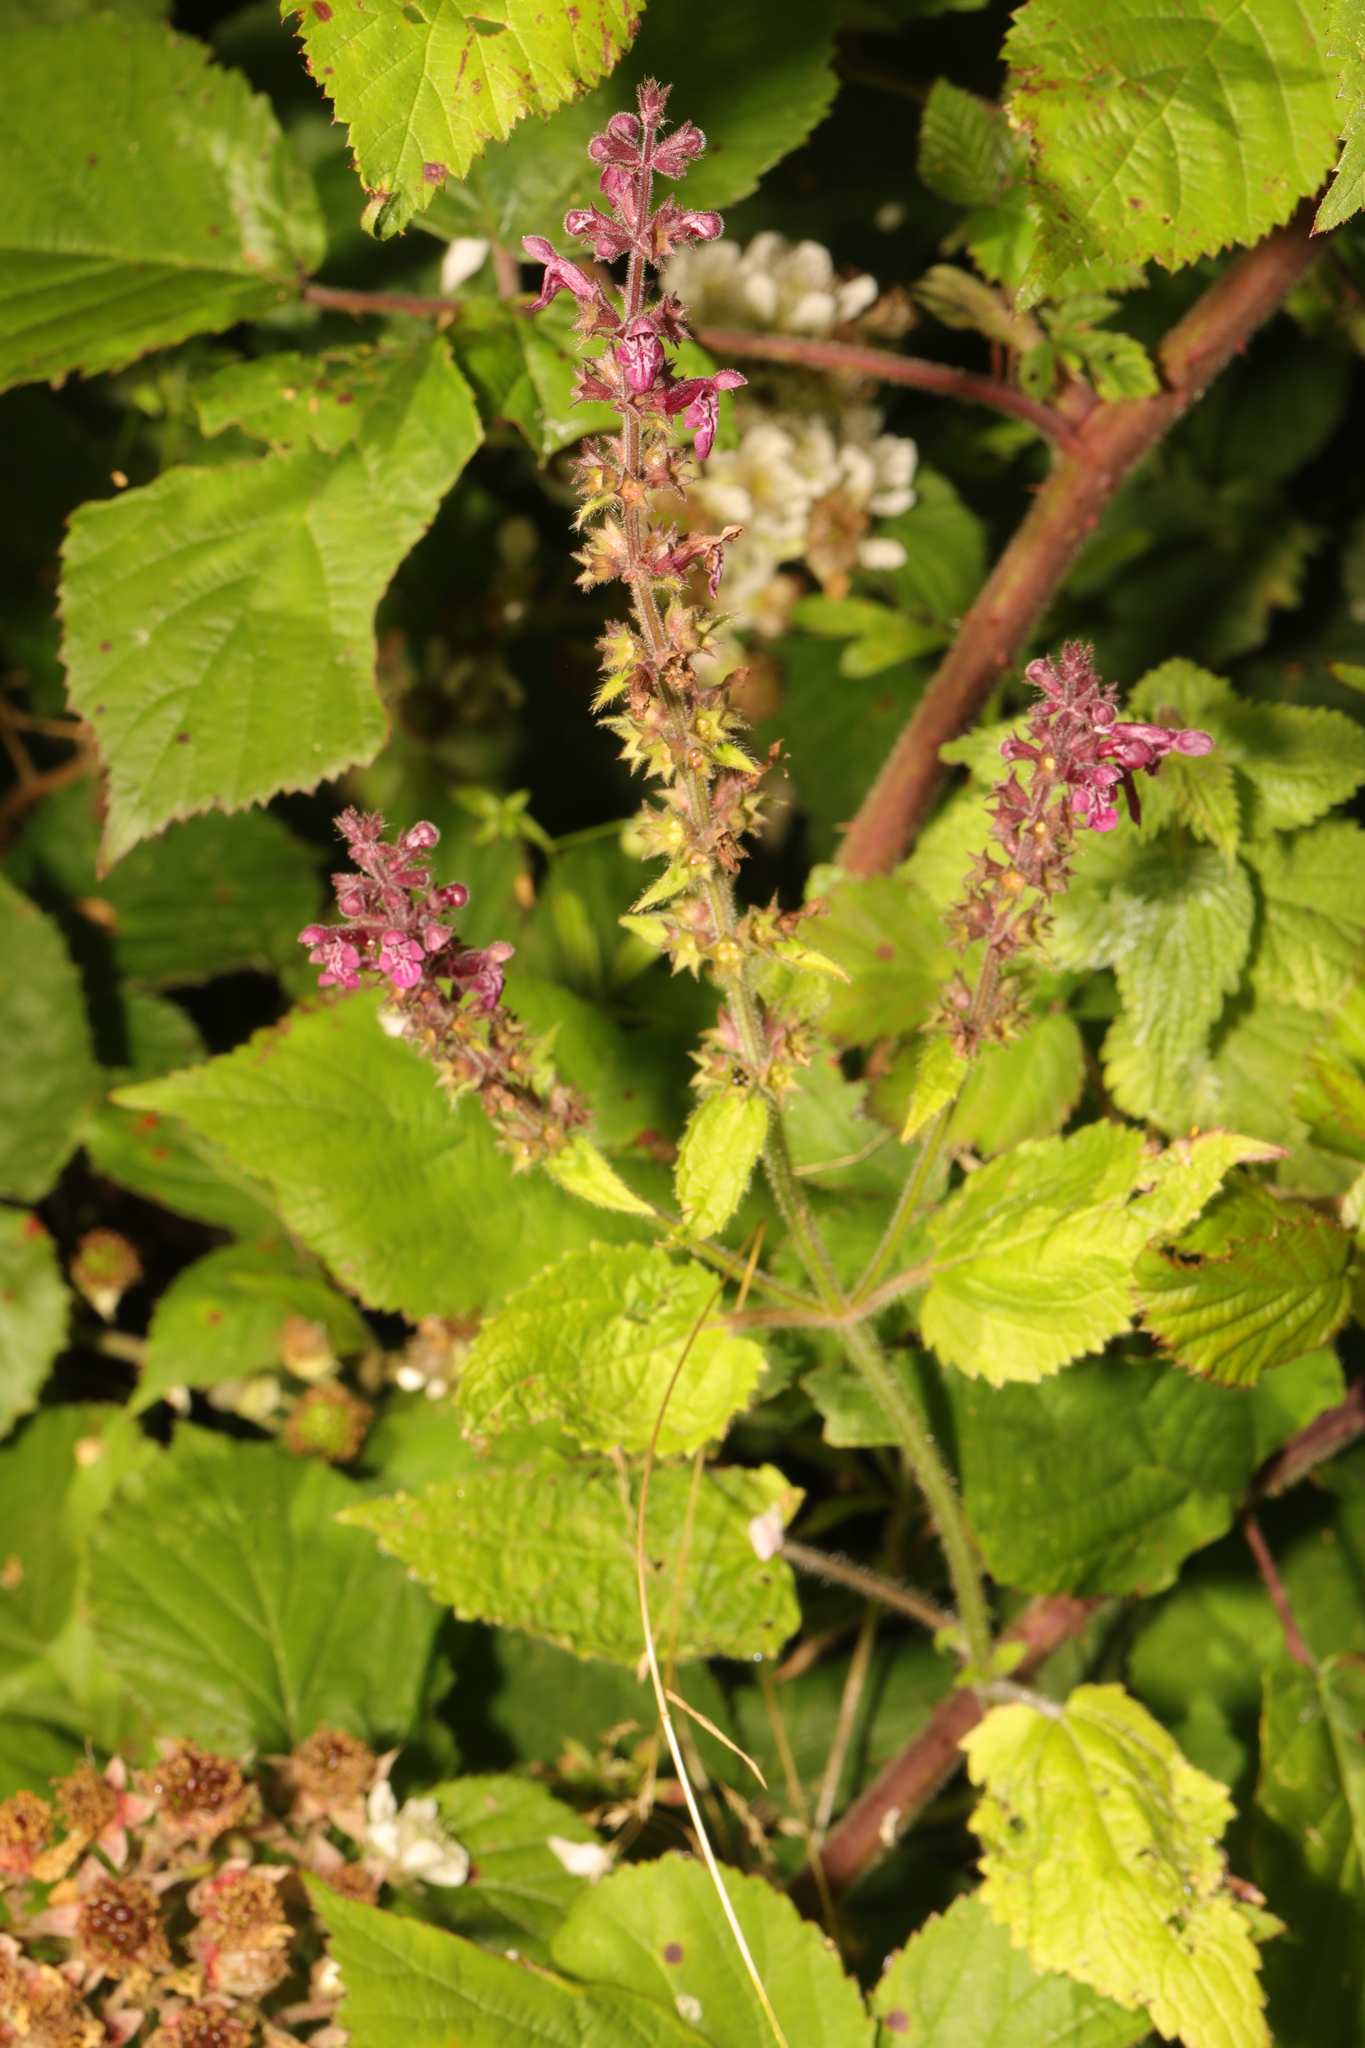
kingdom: Plantae
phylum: Tracheophyta
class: Magnoliopsida
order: Lamiales
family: Lamiaceae
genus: Stachys
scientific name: Stachys sylvatica
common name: Hedge woundwort
